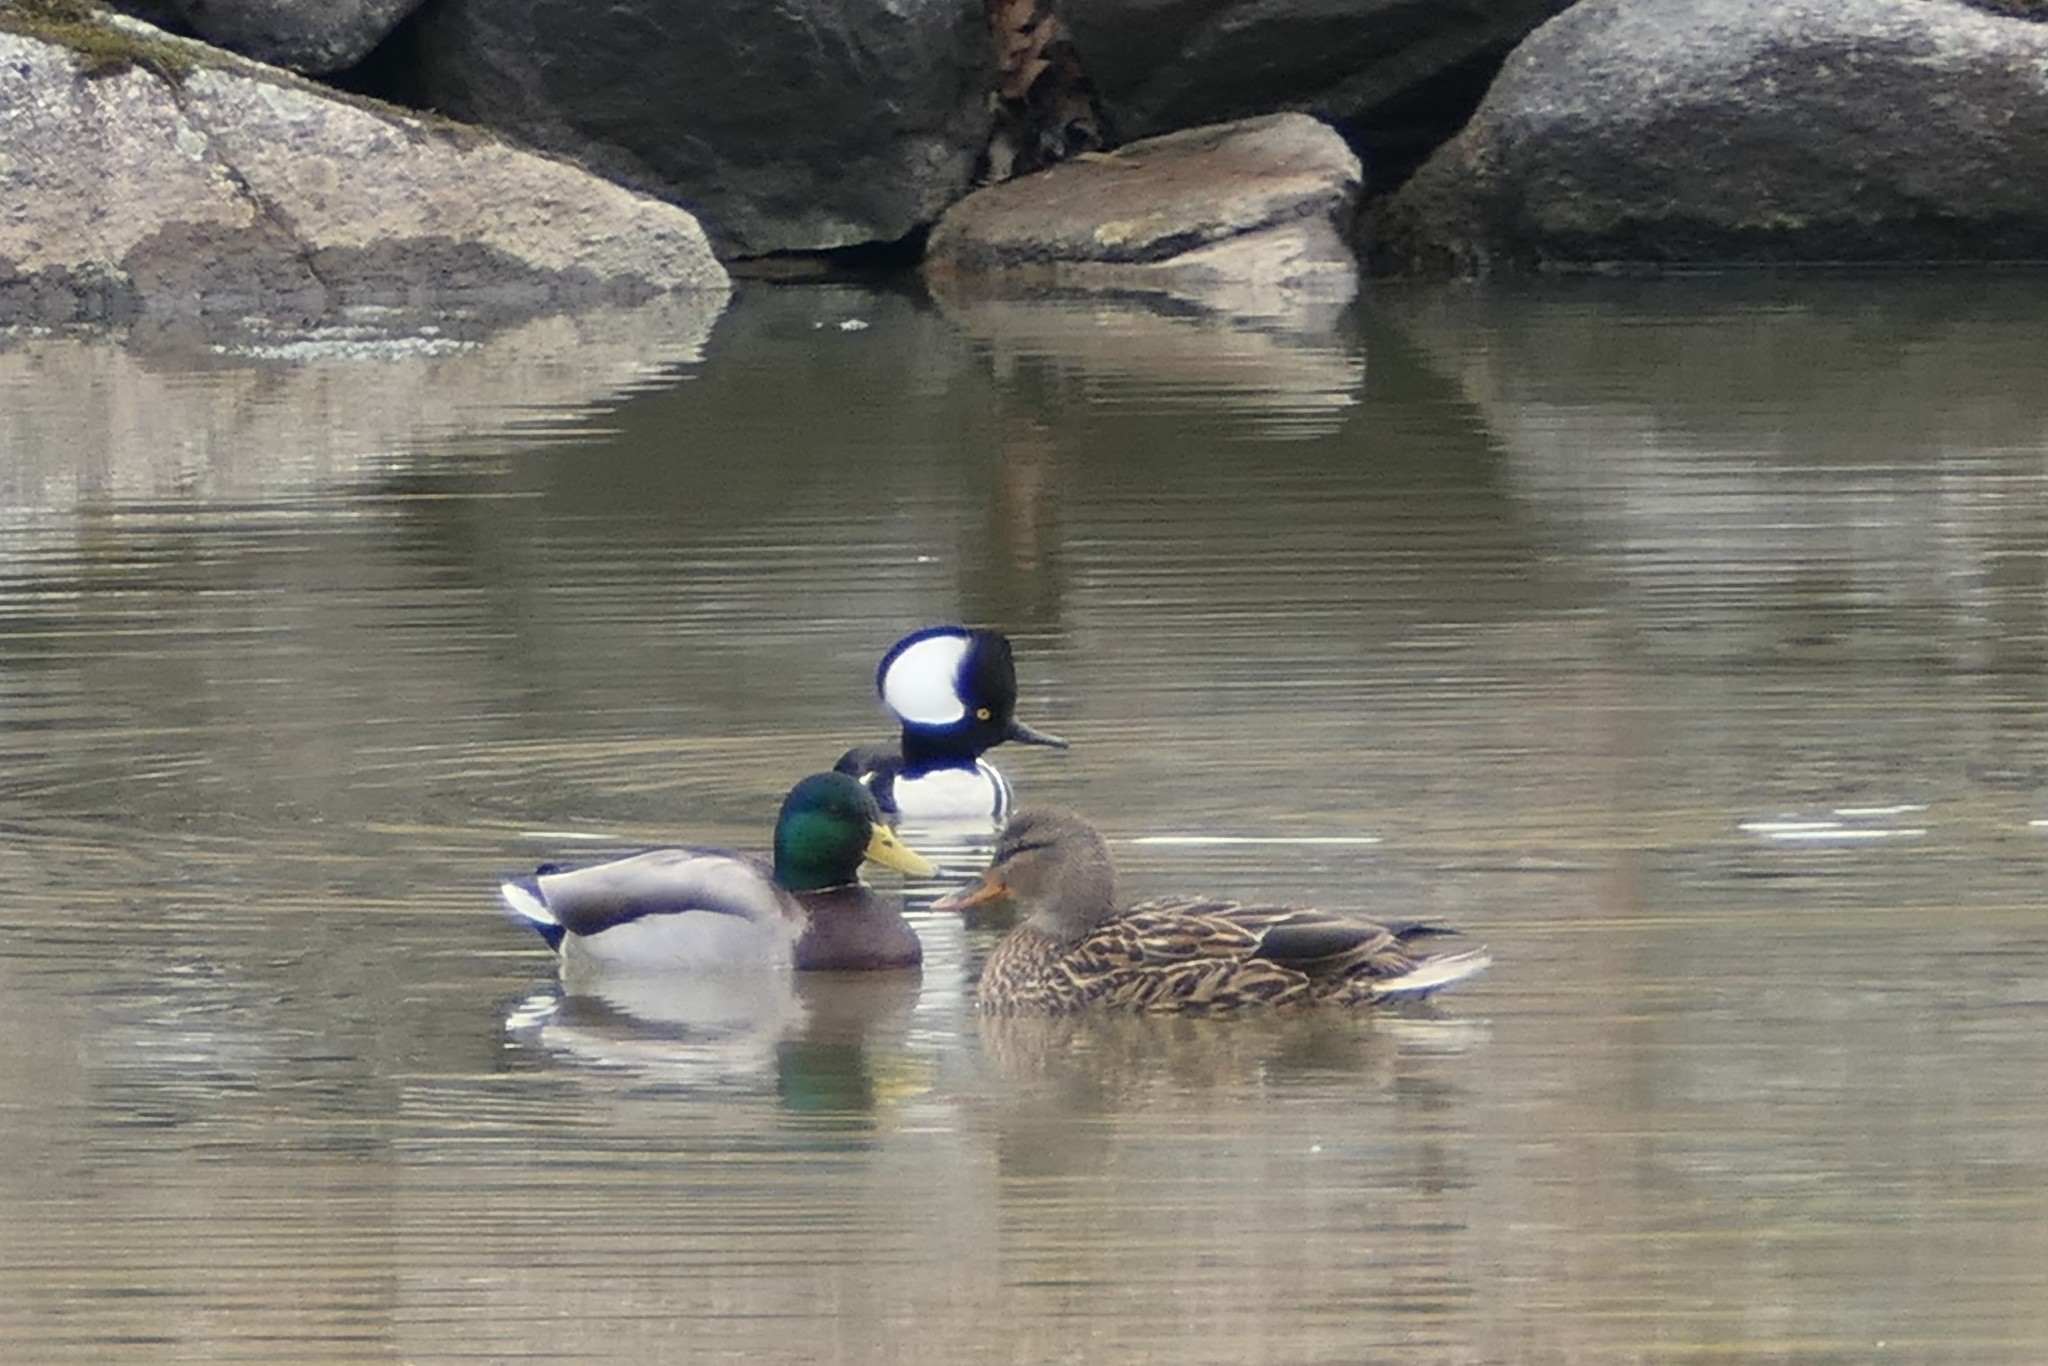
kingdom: Animalia
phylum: Chordata
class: Aves
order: Anseriformes
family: Anatidae
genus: Anas
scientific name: Anas platyrhynchos
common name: Mallard
